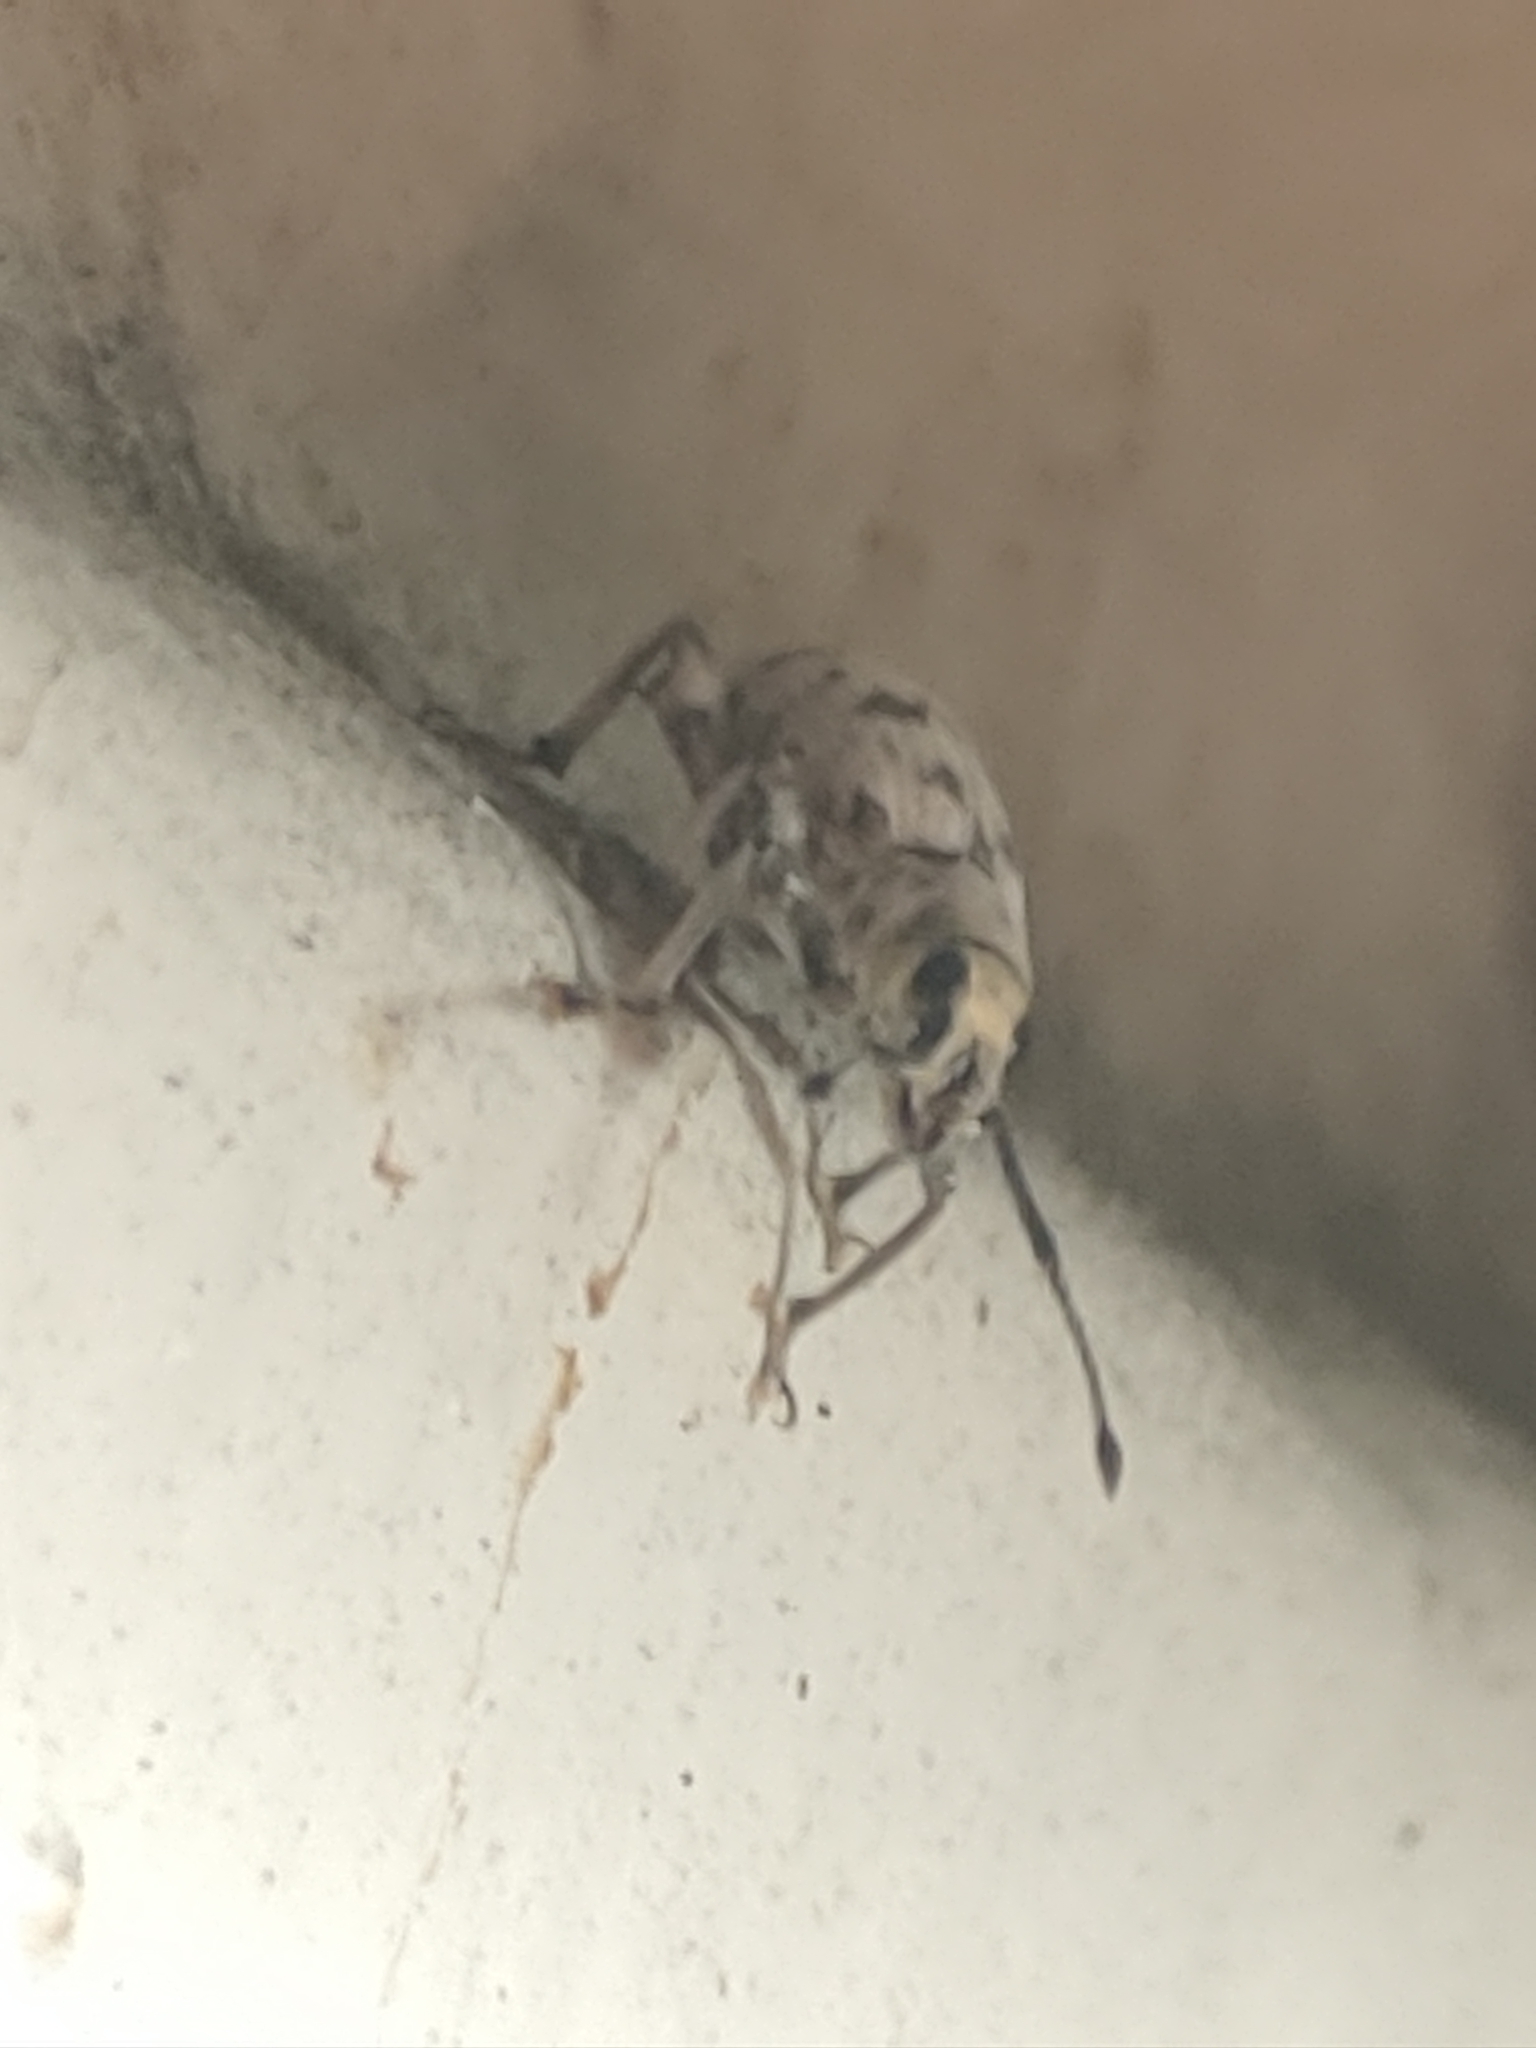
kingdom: Animalia
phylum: Arthropoda
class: Insecta
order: Coleoptera
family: Curculionidae
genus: Myllocerus
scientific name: Myllocerus undecimpustulatus
